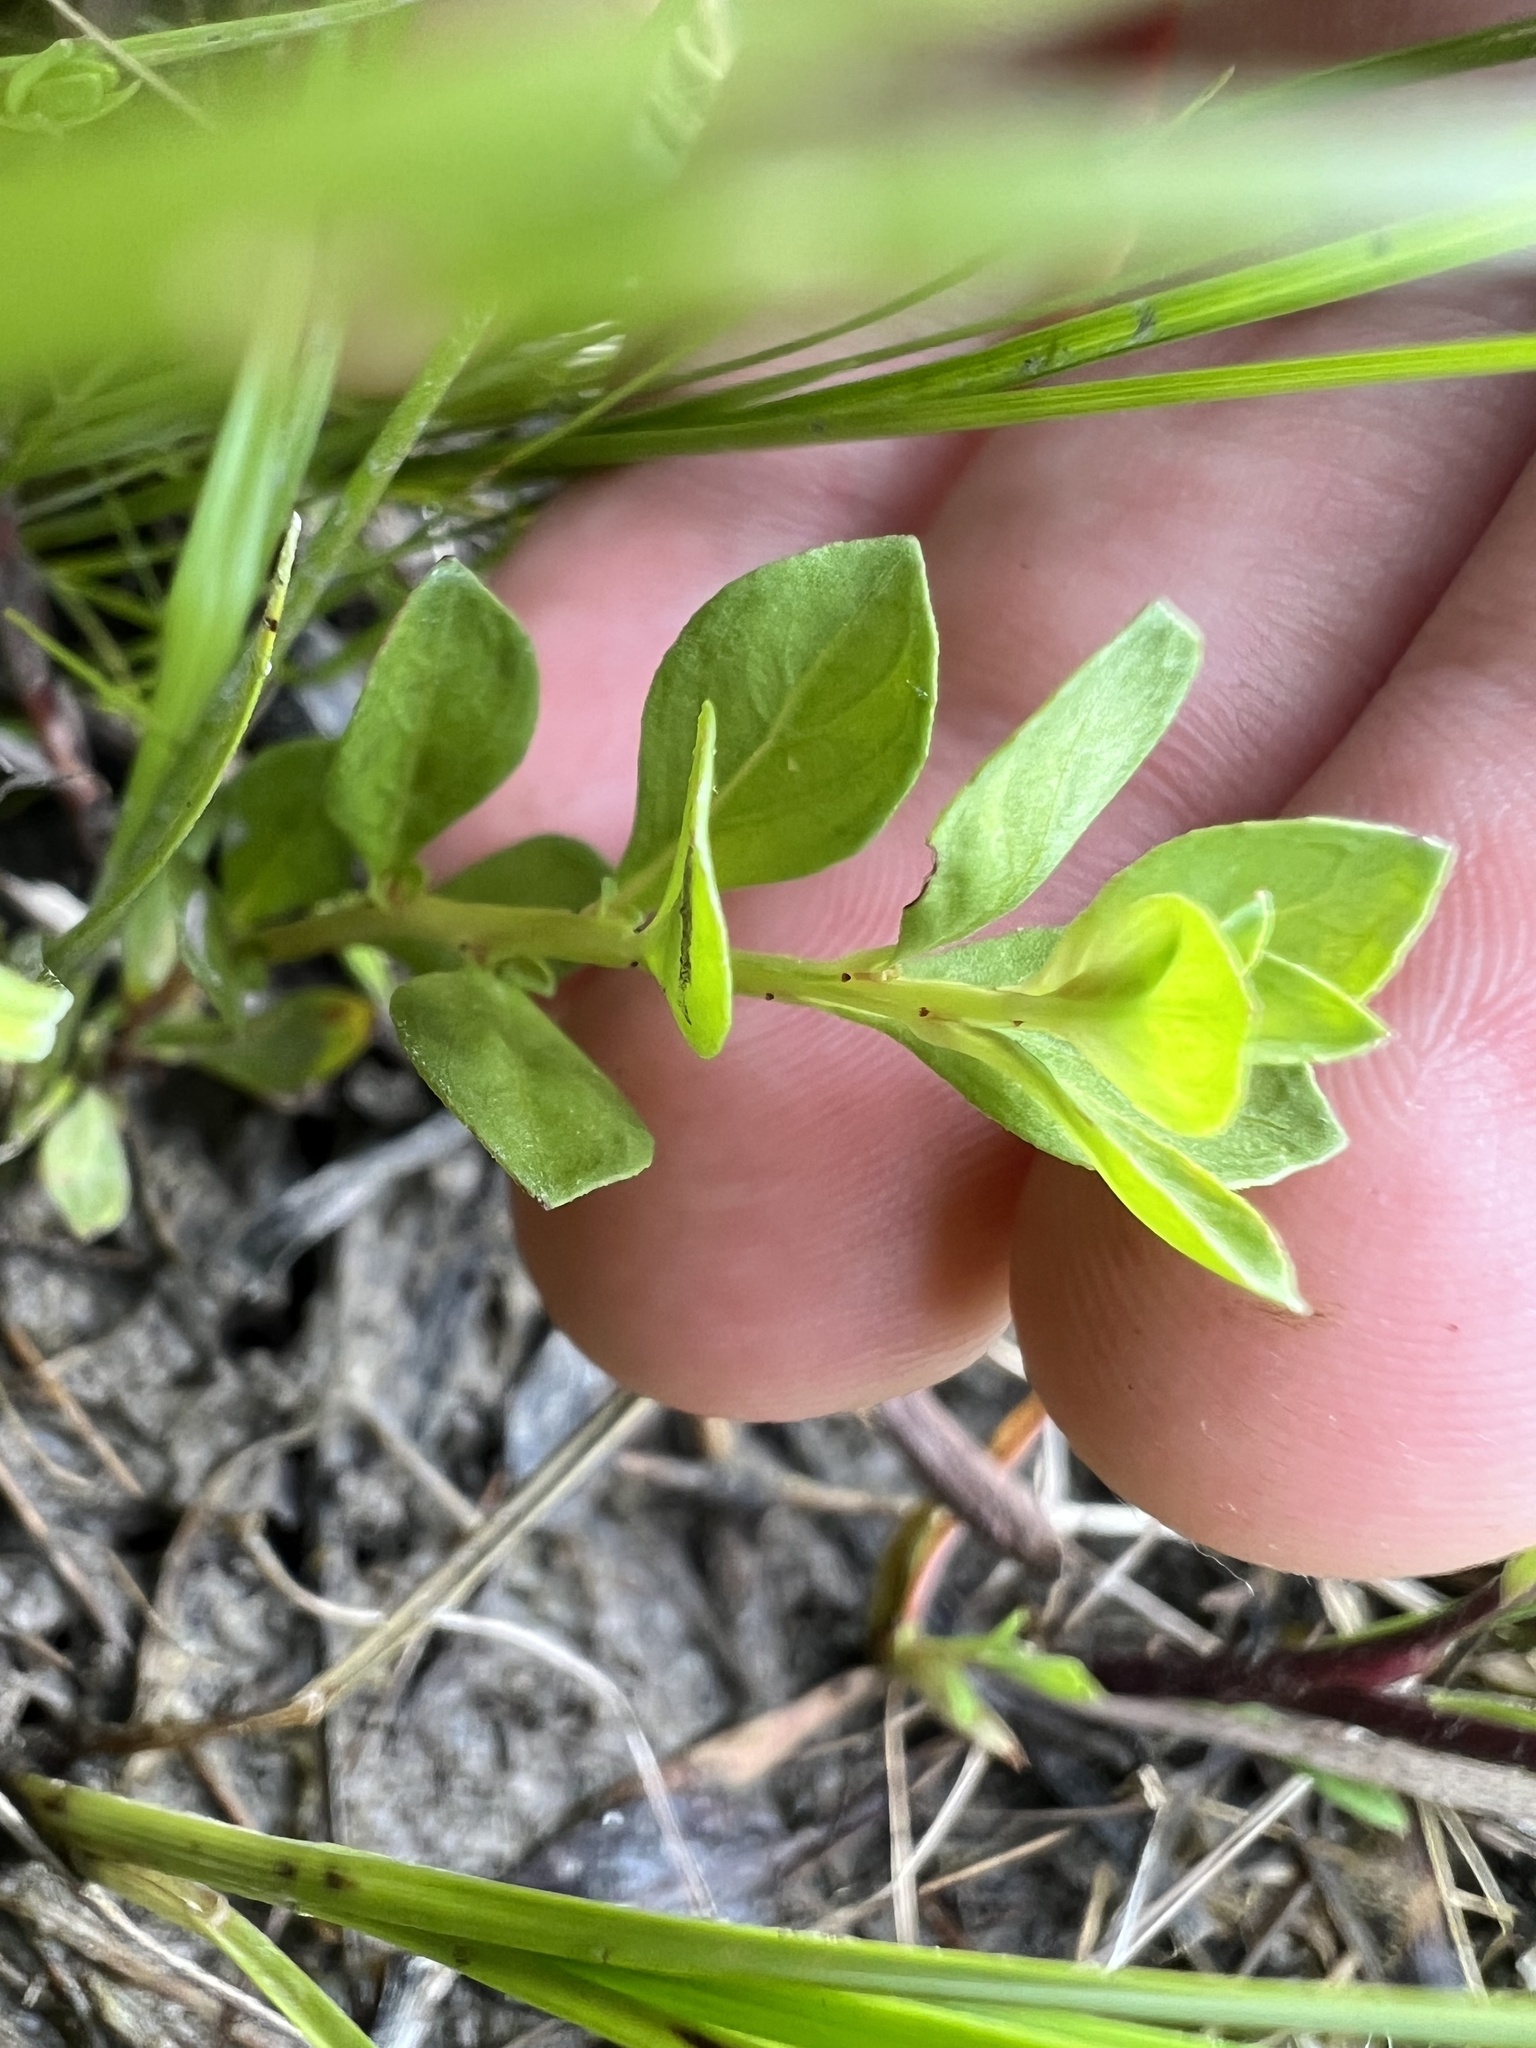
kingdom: Plantae
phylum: Tracheophyta
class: Magnoliopsida
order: Myrtales
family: Onagraceae
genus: Ludwigia
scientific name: Ludwigia microcarpa
